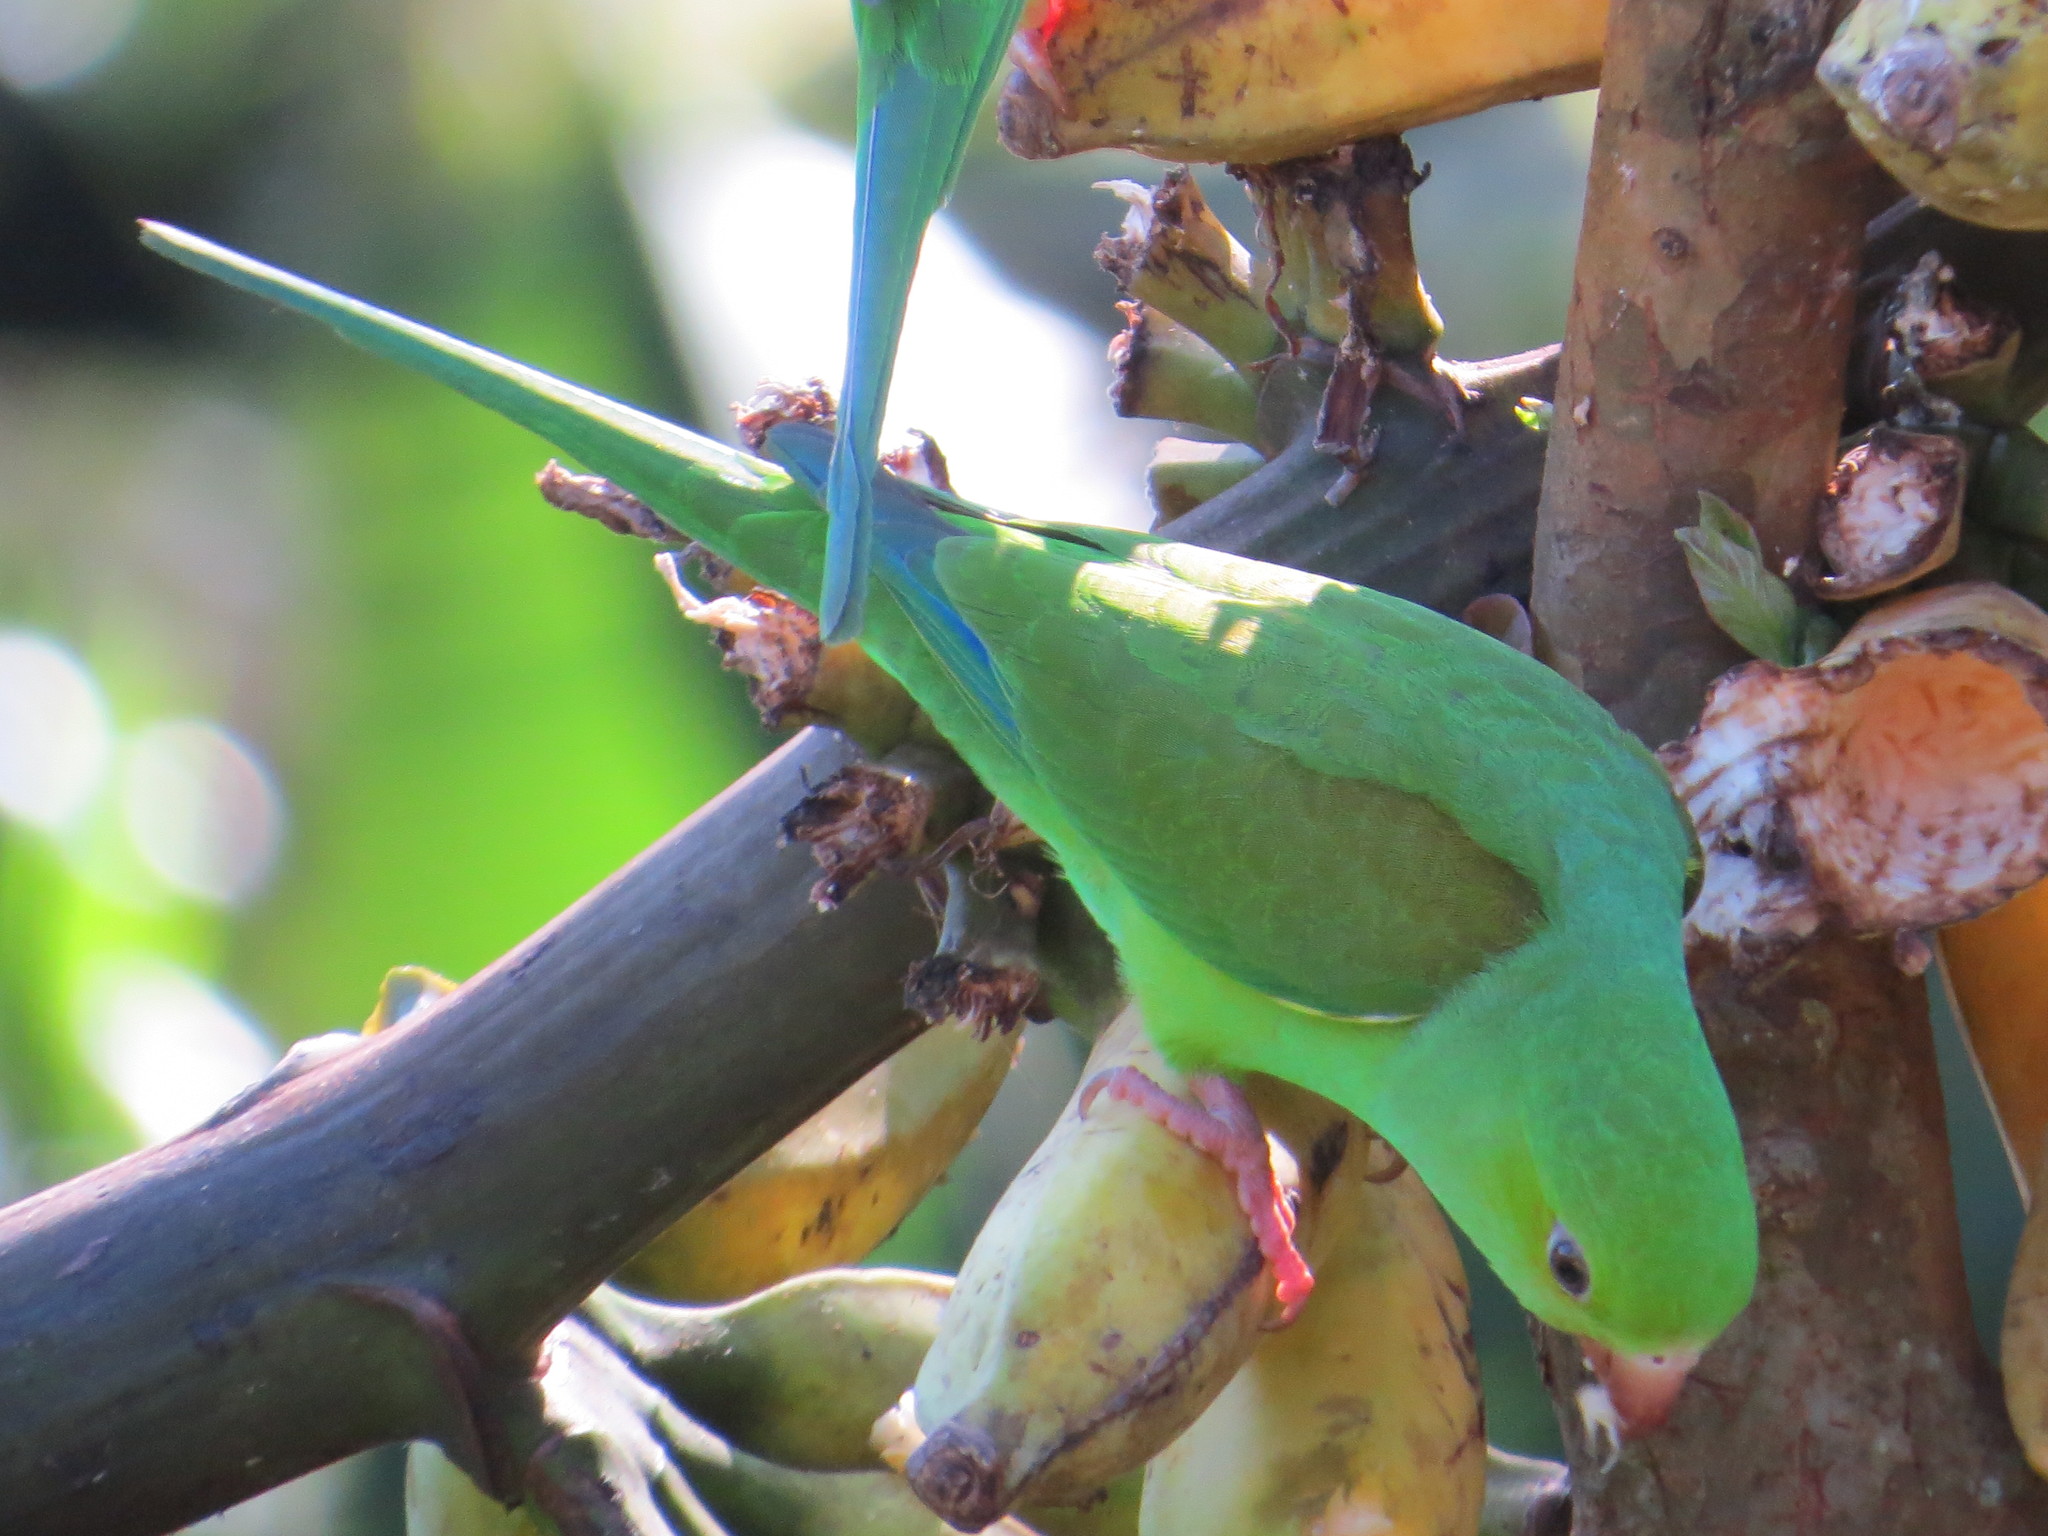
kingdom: Animalia
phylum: Chordata
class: Aves
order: Psittaciformes
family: Psittacidae
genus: Brotogeris
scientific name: Brotogeris tirica
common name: Plain parakeet
